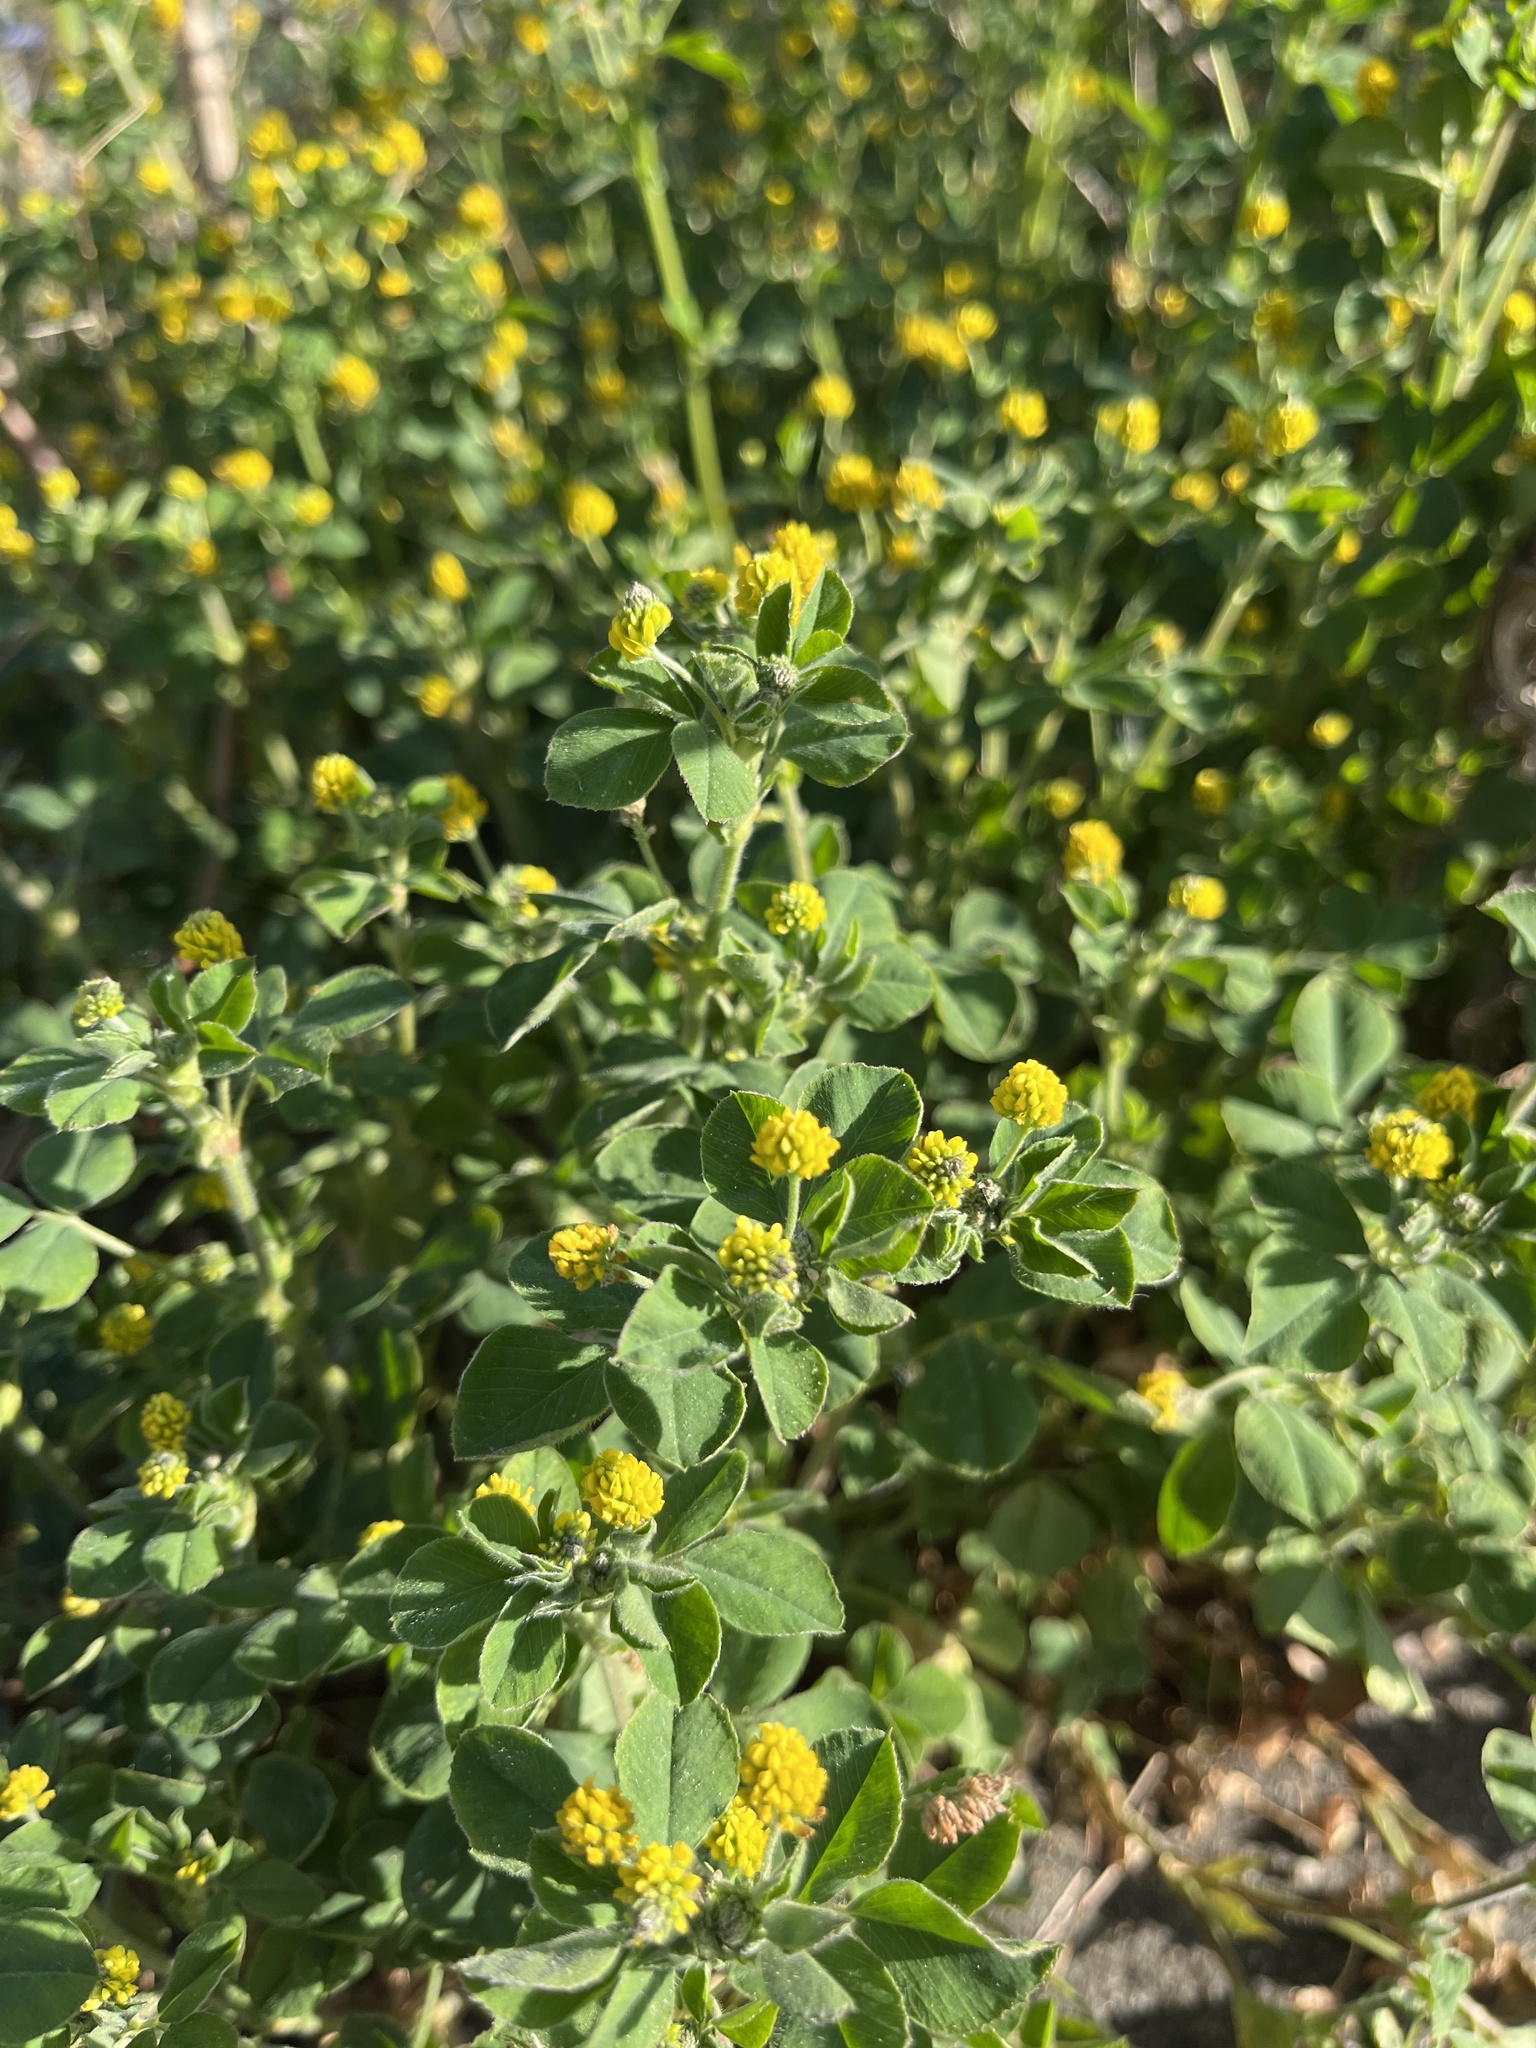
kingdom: Plantae
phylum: Tracheophyta
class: Magnoliopsida
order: Fabales
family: Fabaceae
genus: Medicago
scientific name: Medicago lupulina
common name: Black medick
